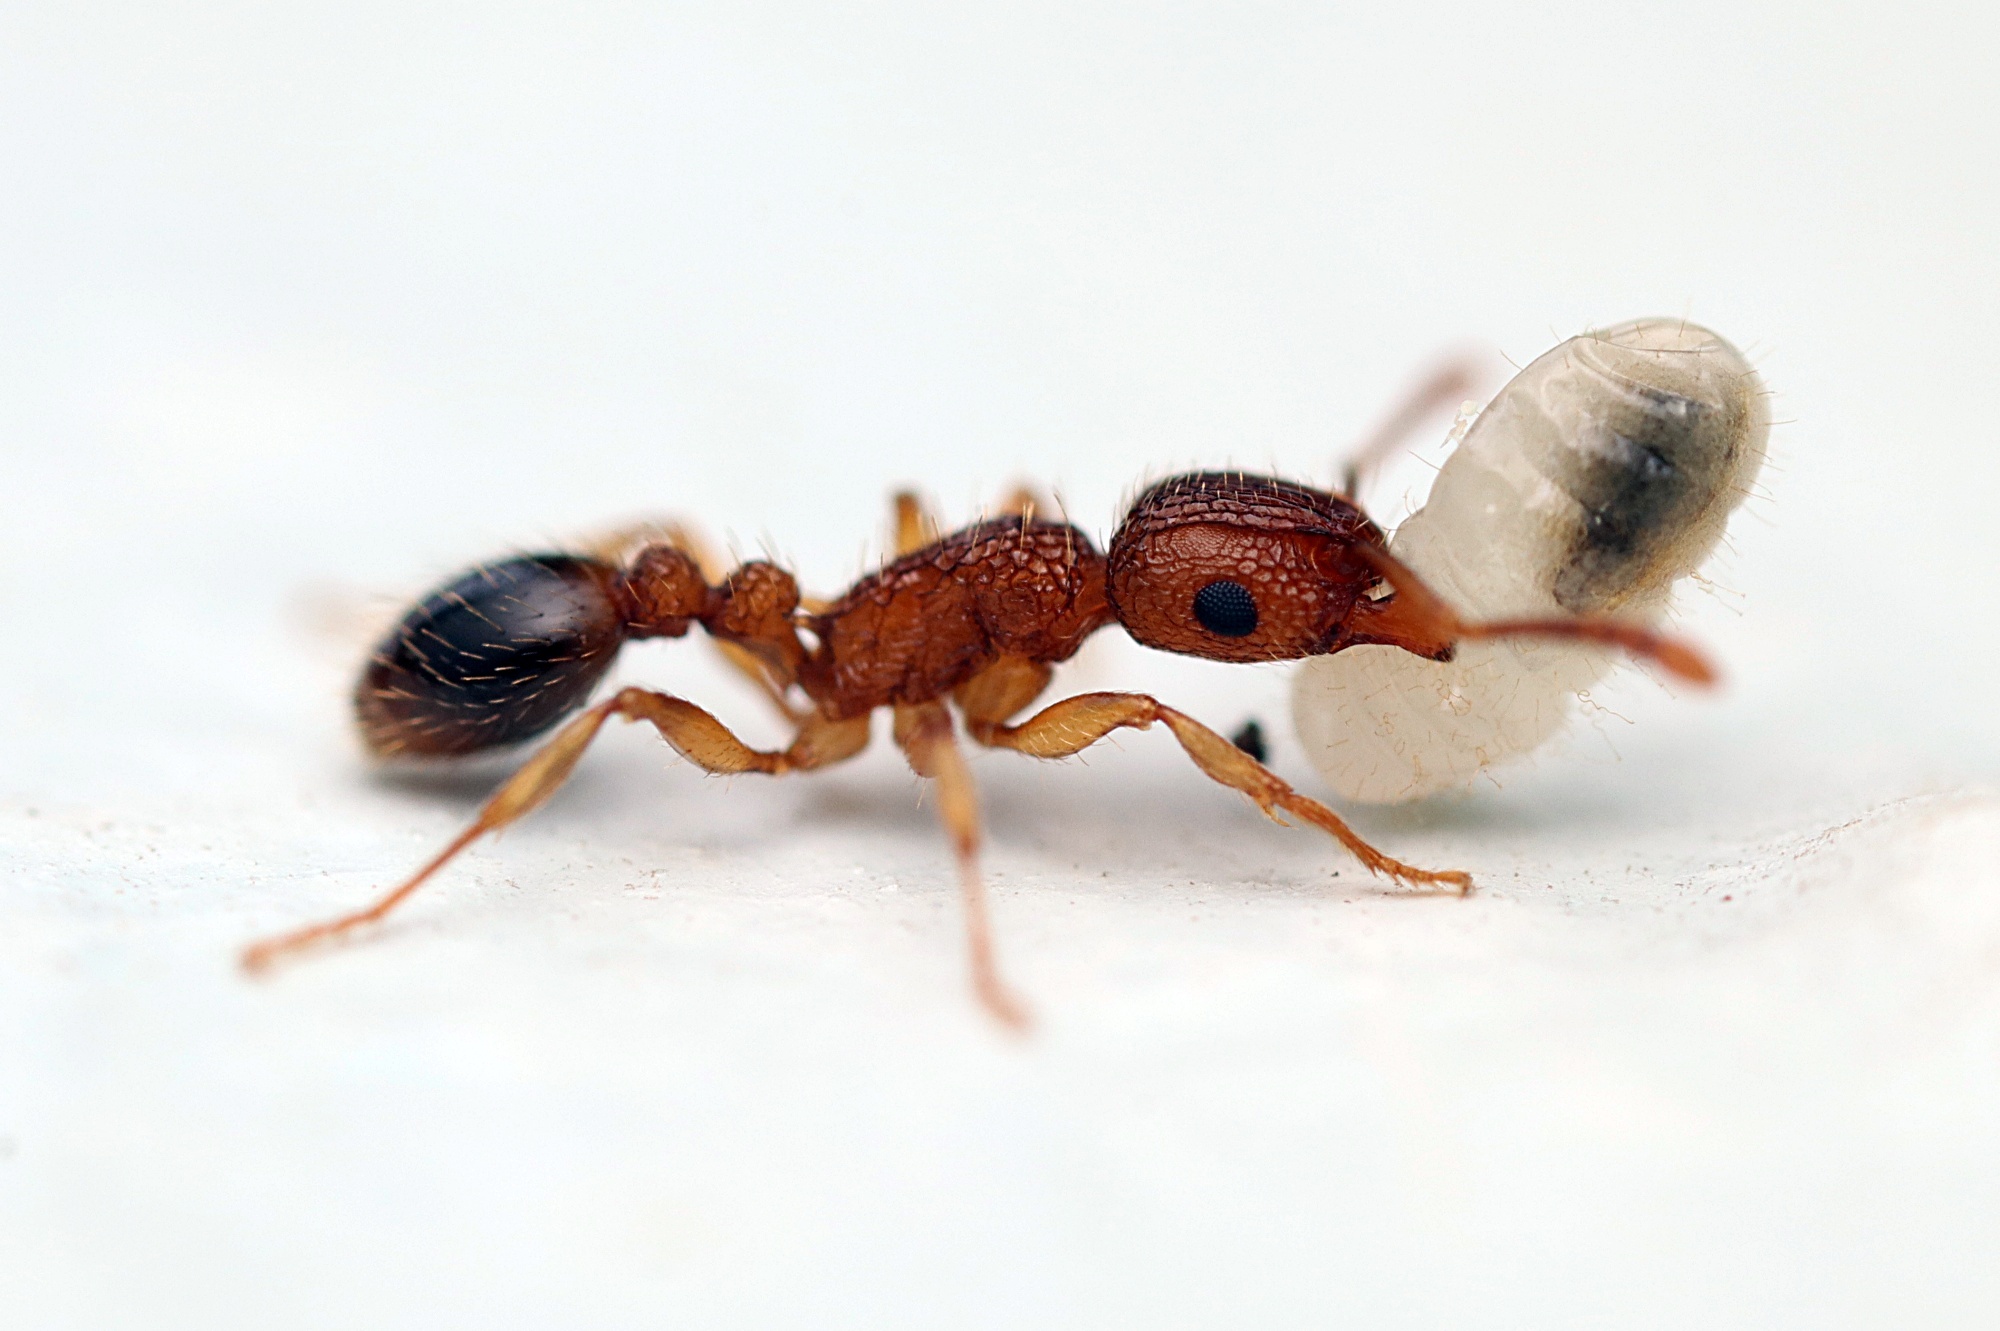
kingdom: Animalia
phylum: Arthropoda
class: Insecta
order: Hymenoptera
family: Formicidae
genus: Tetramorium
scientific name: Tetramorium bicarinatum
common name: Guinea ant
